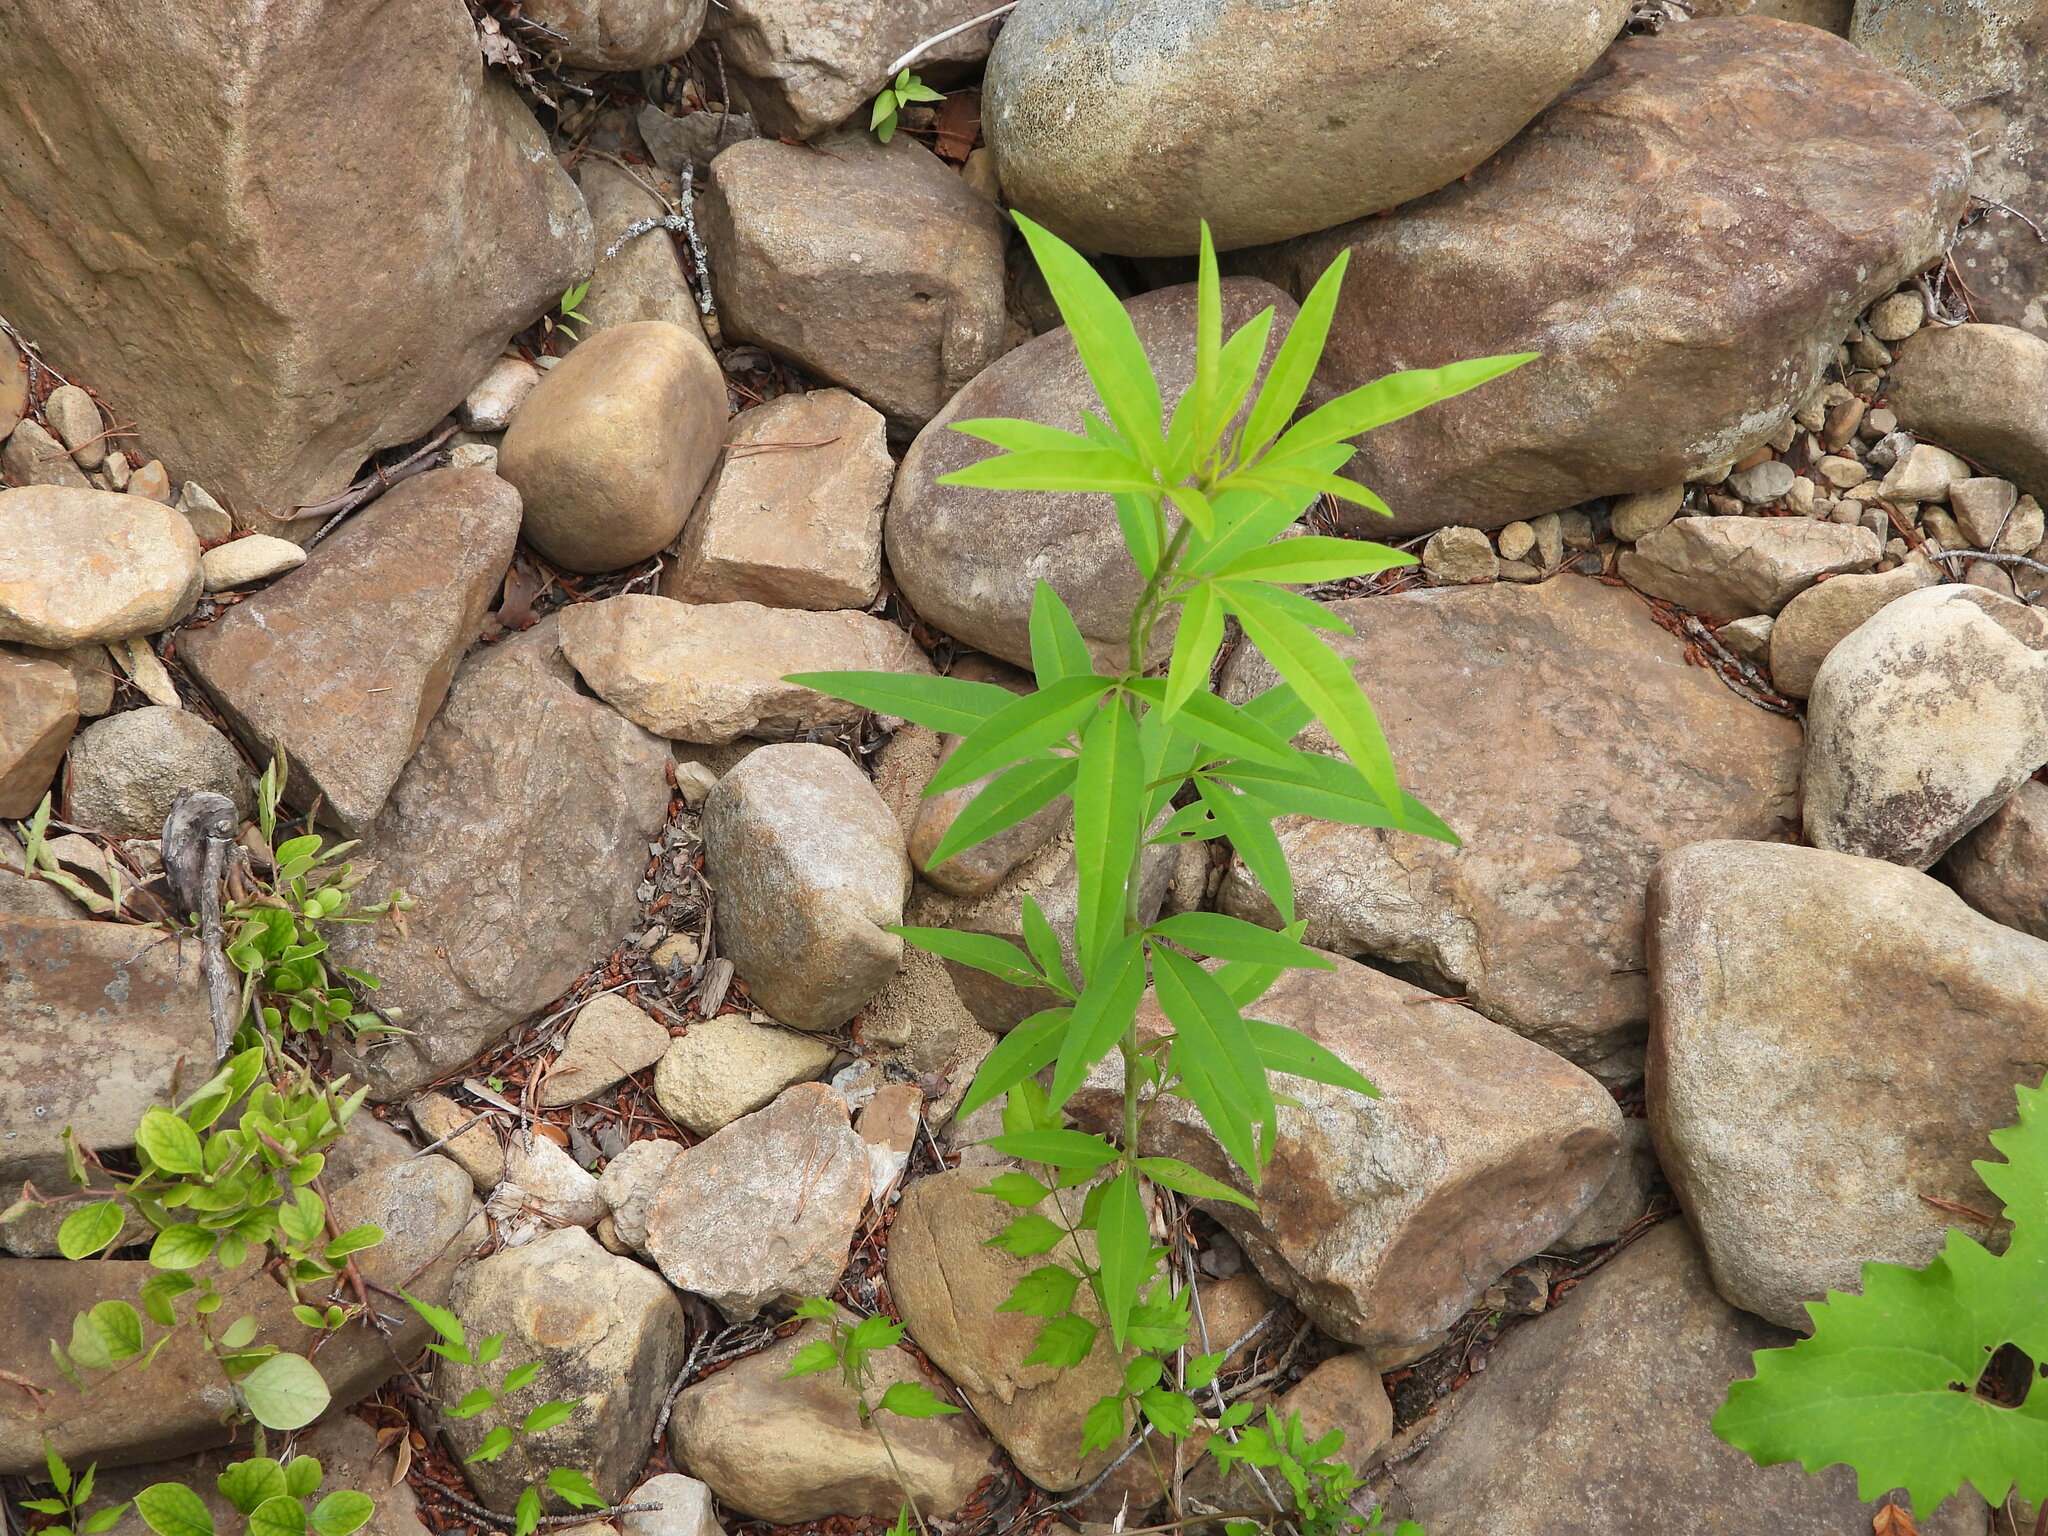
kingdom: Plantae
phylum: Tracheophyta
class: Magnoliopsida
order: Asterales
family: Asteraceae
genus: Coreopsis
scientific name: Coreopsis tripteris
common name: Tall coreopsis
